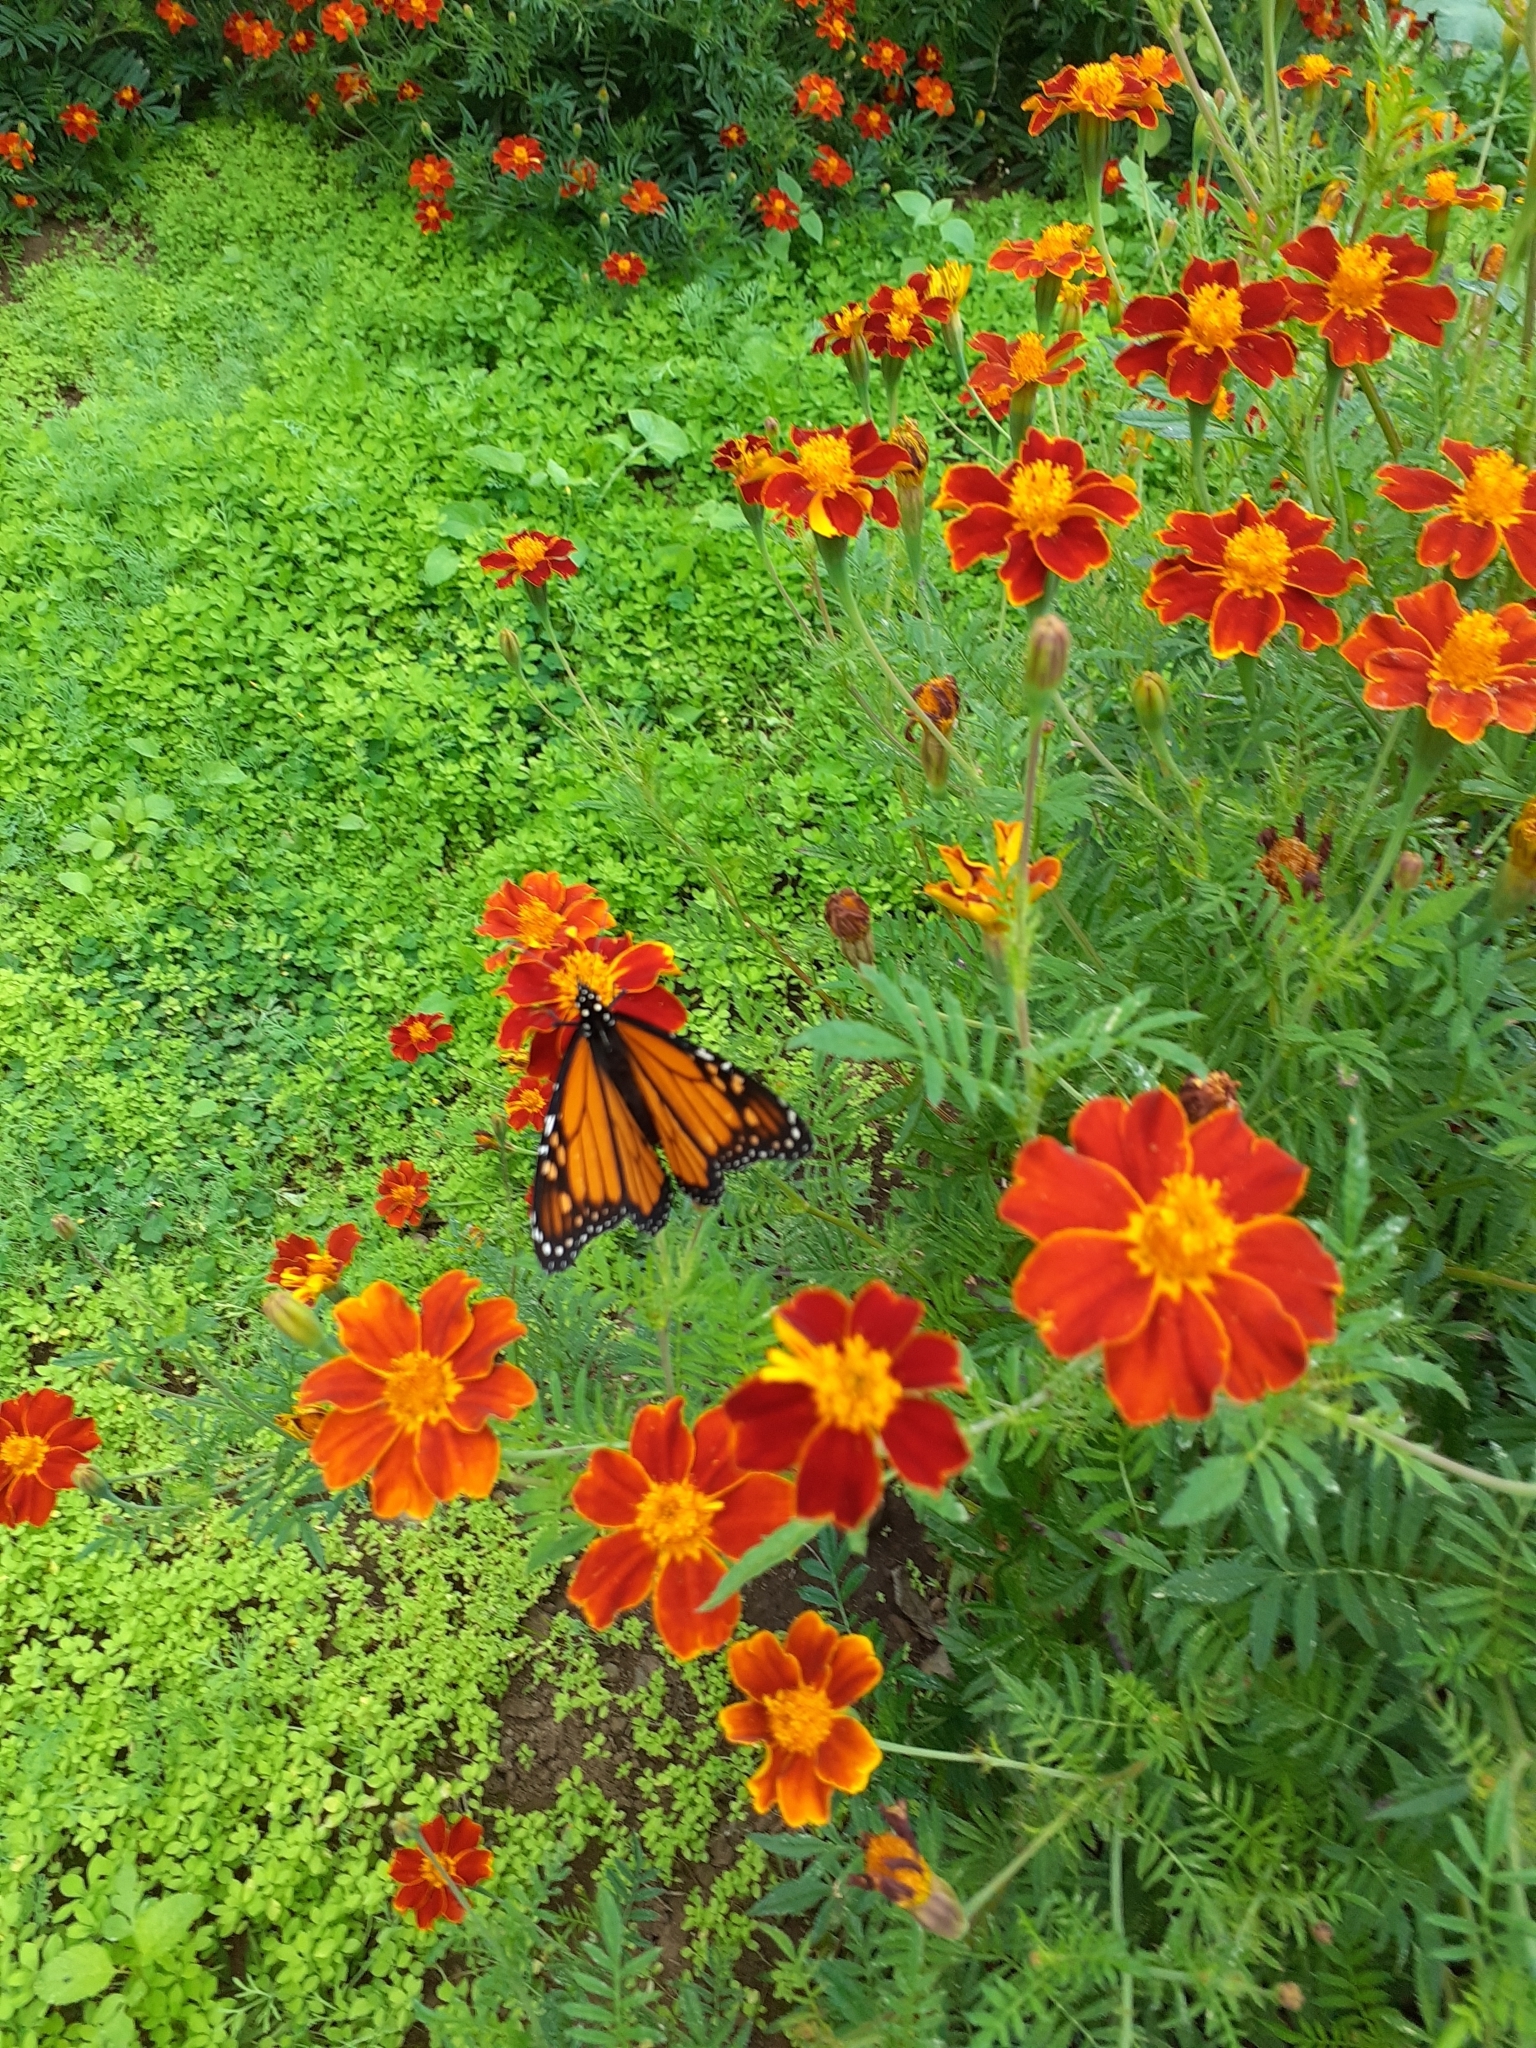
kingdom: Animalia
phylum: Arthropoda
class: Insecta
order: Lepidoptera
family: Nymphalidae
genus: Danaus
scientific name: Danaus plexippus
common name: Monarch
